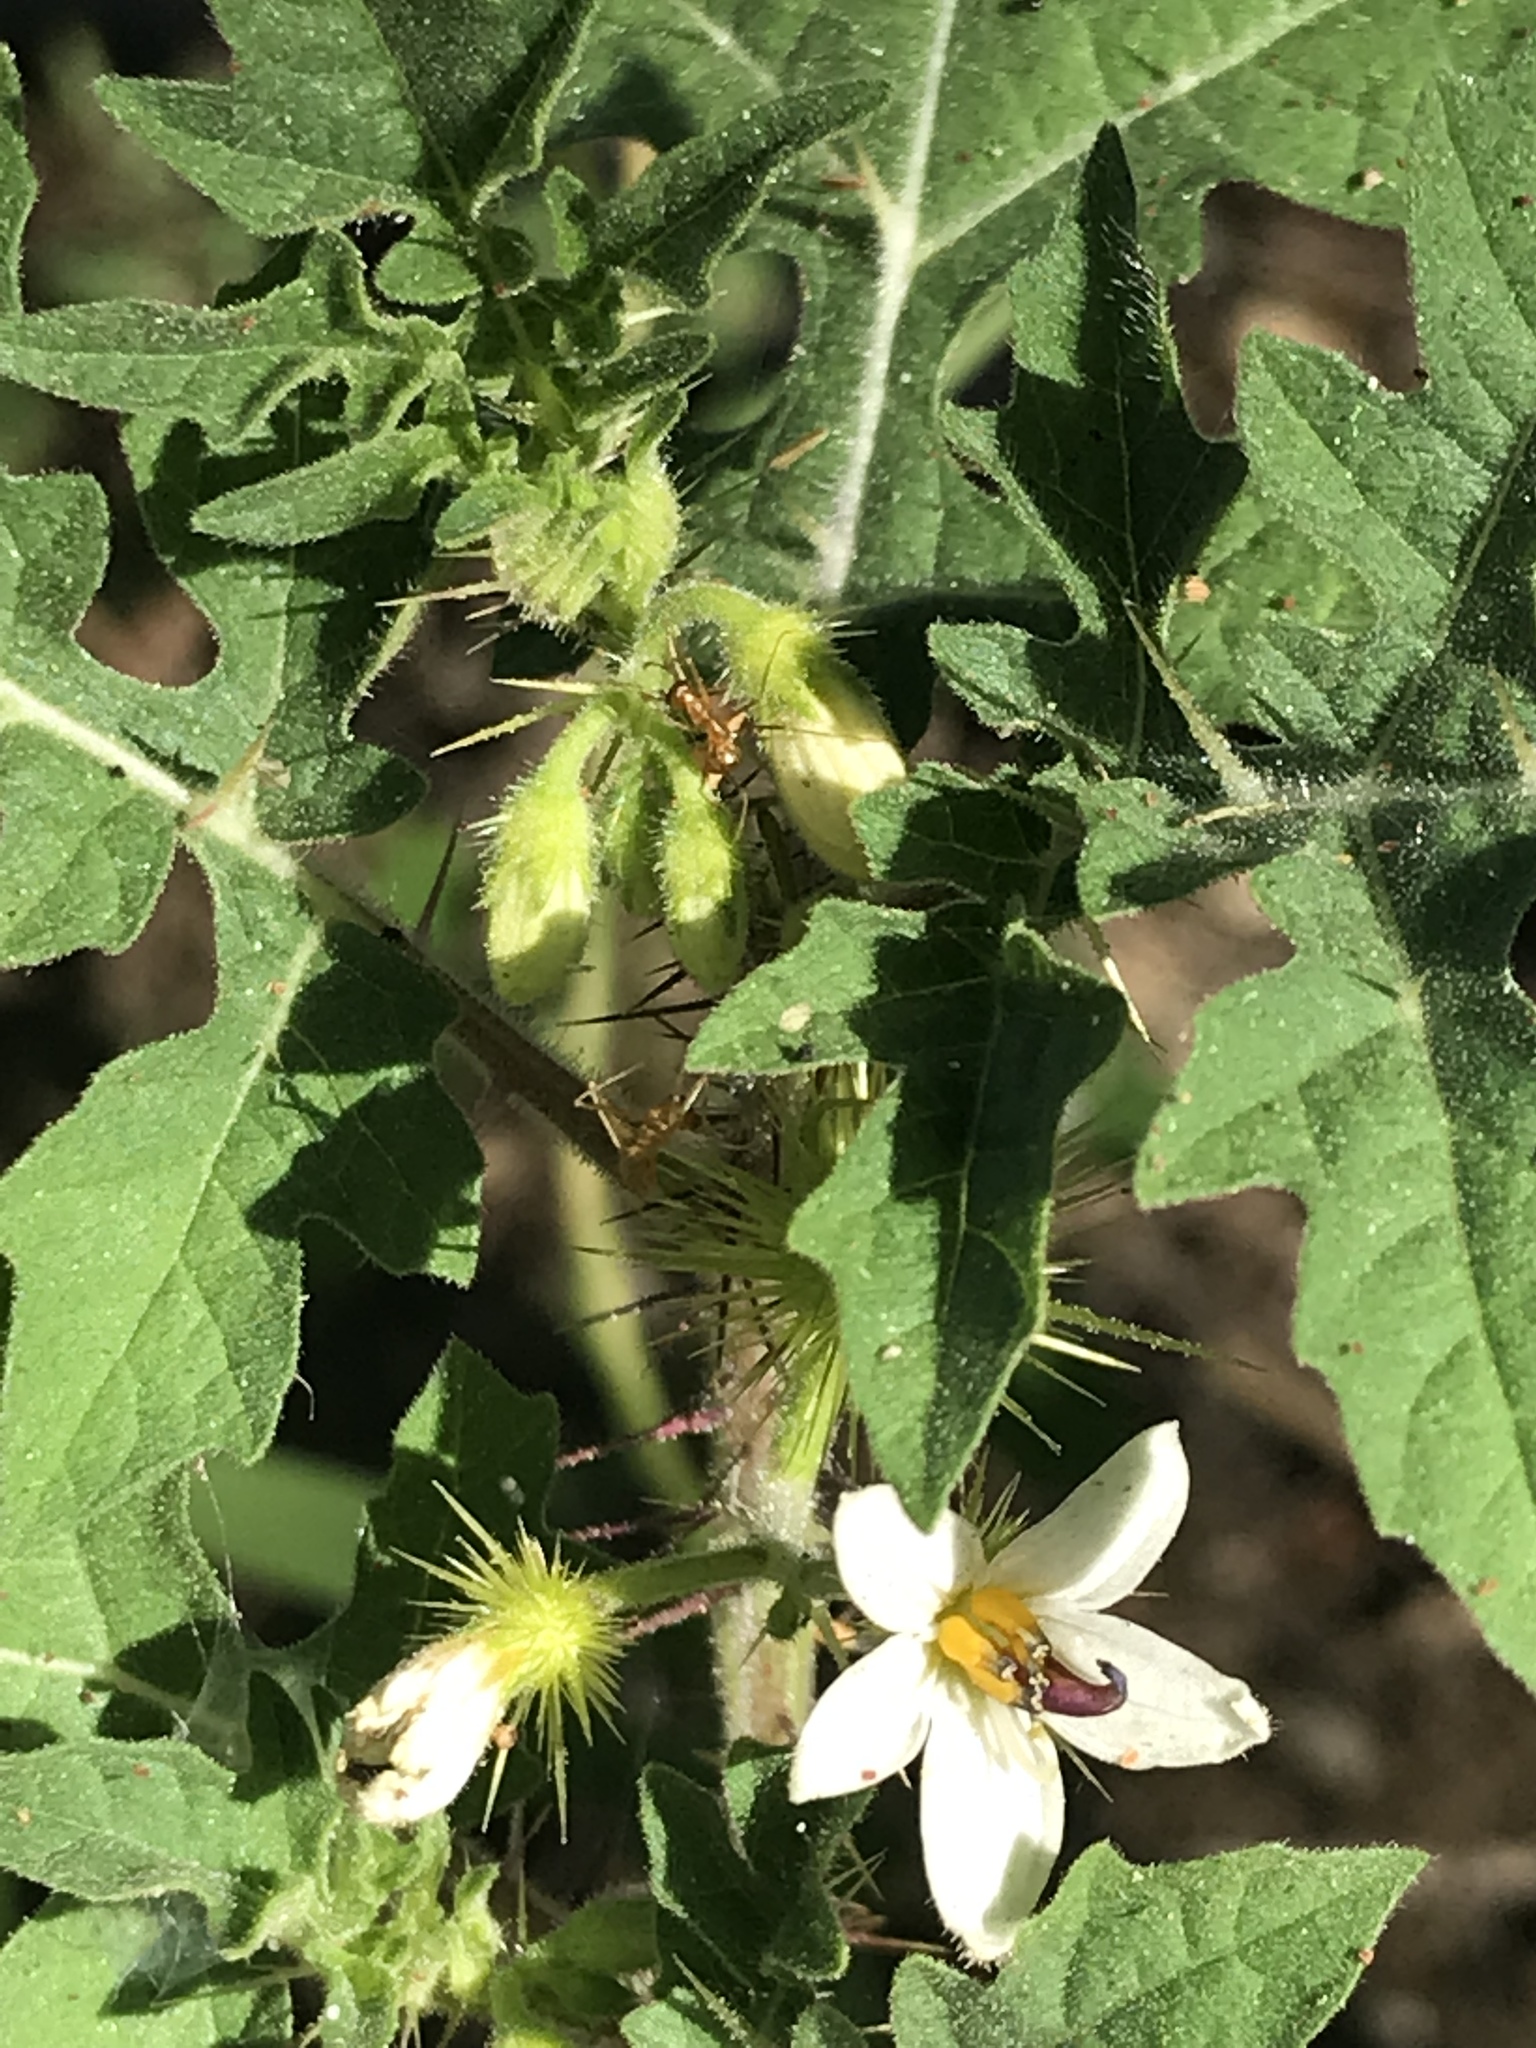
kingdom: Plantae
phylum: Tracheophyta
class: Magnoliopsida
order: Solanales
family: Solanaceae
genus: Solanum
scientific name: Solanum grayi
